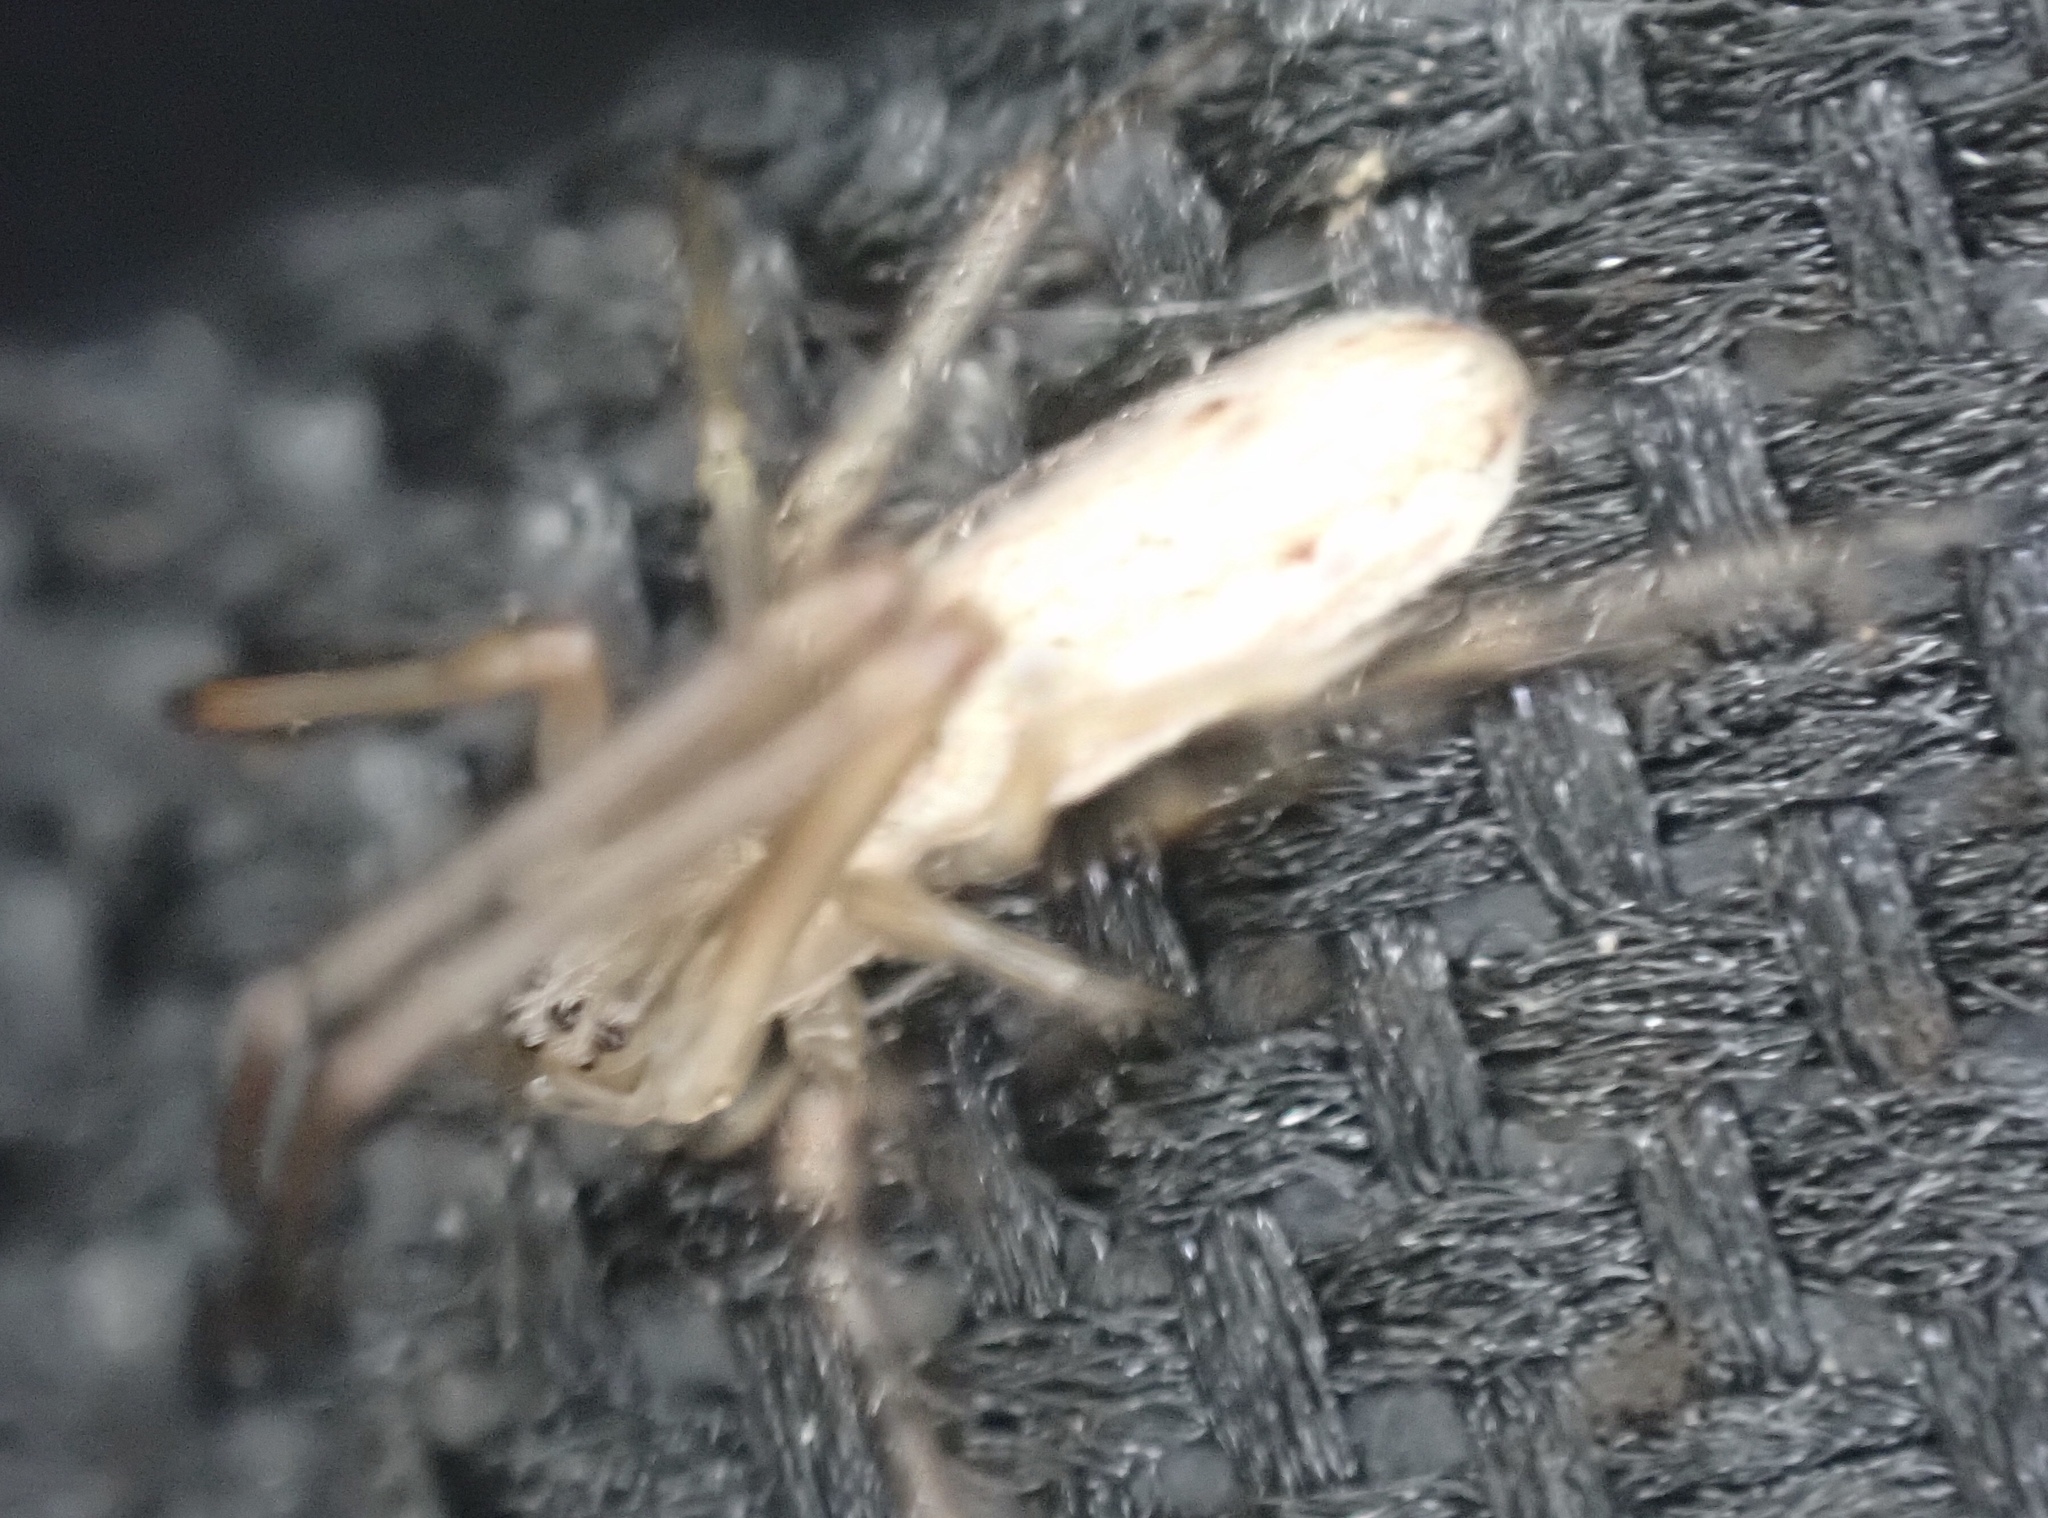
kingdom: Animalia
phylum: Arthropoda
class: Arachnida
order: Araneae
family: Tetragnathidae
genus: Tetragnatha
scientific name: Tetragnatha
